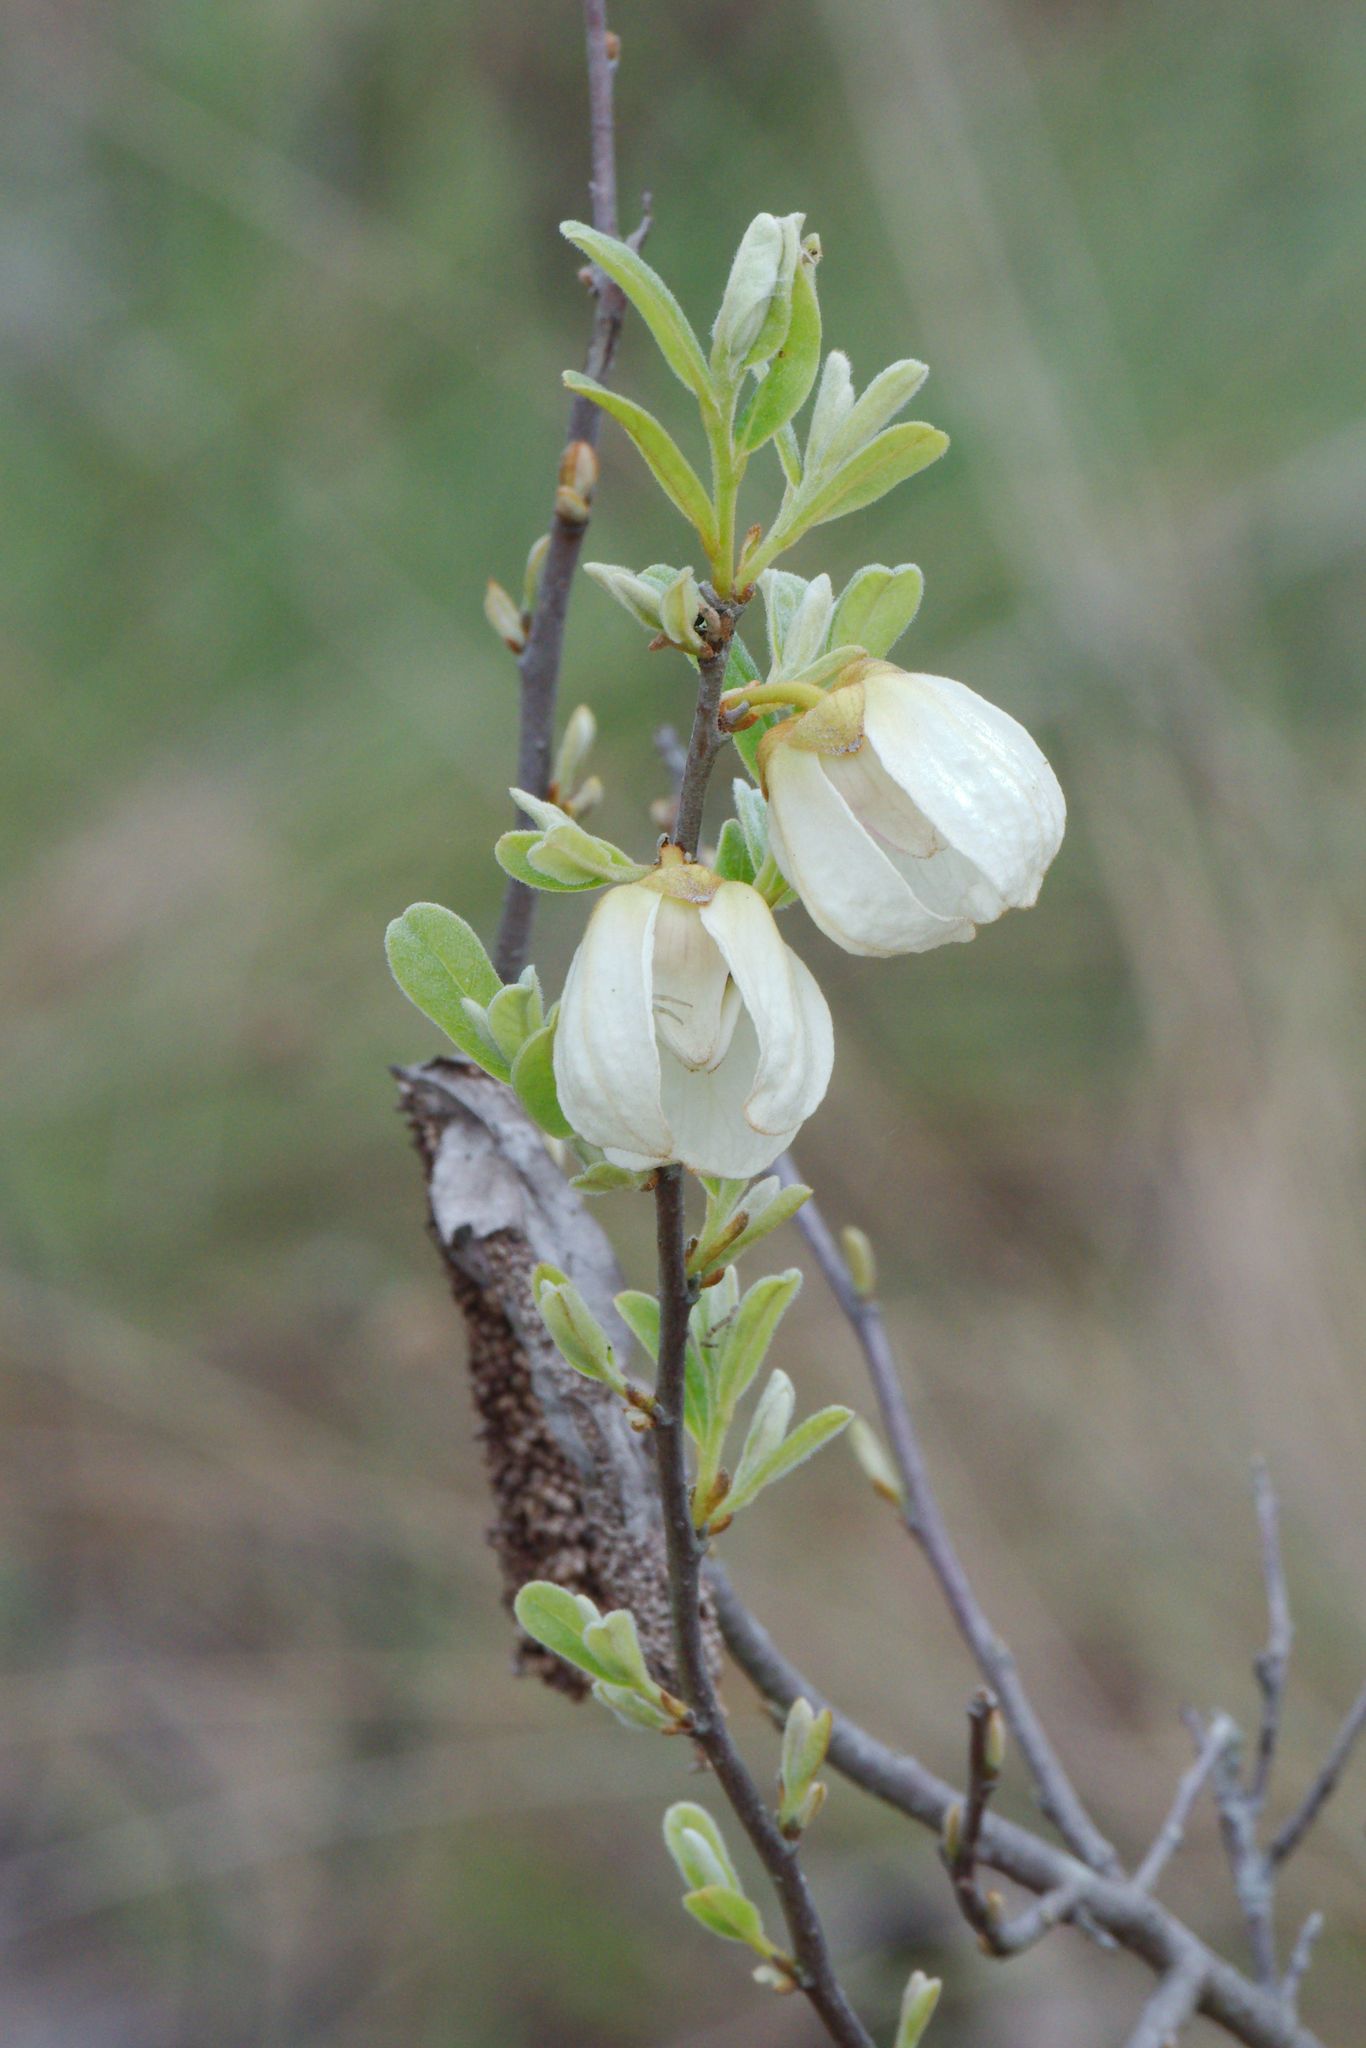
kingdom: Plantae
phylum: Tracheophyta
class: Magnoliopsida
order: Magnoliales
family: Annonaceae
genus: Asimina
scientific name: Asimina reticulata
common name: Flag pawpaw
